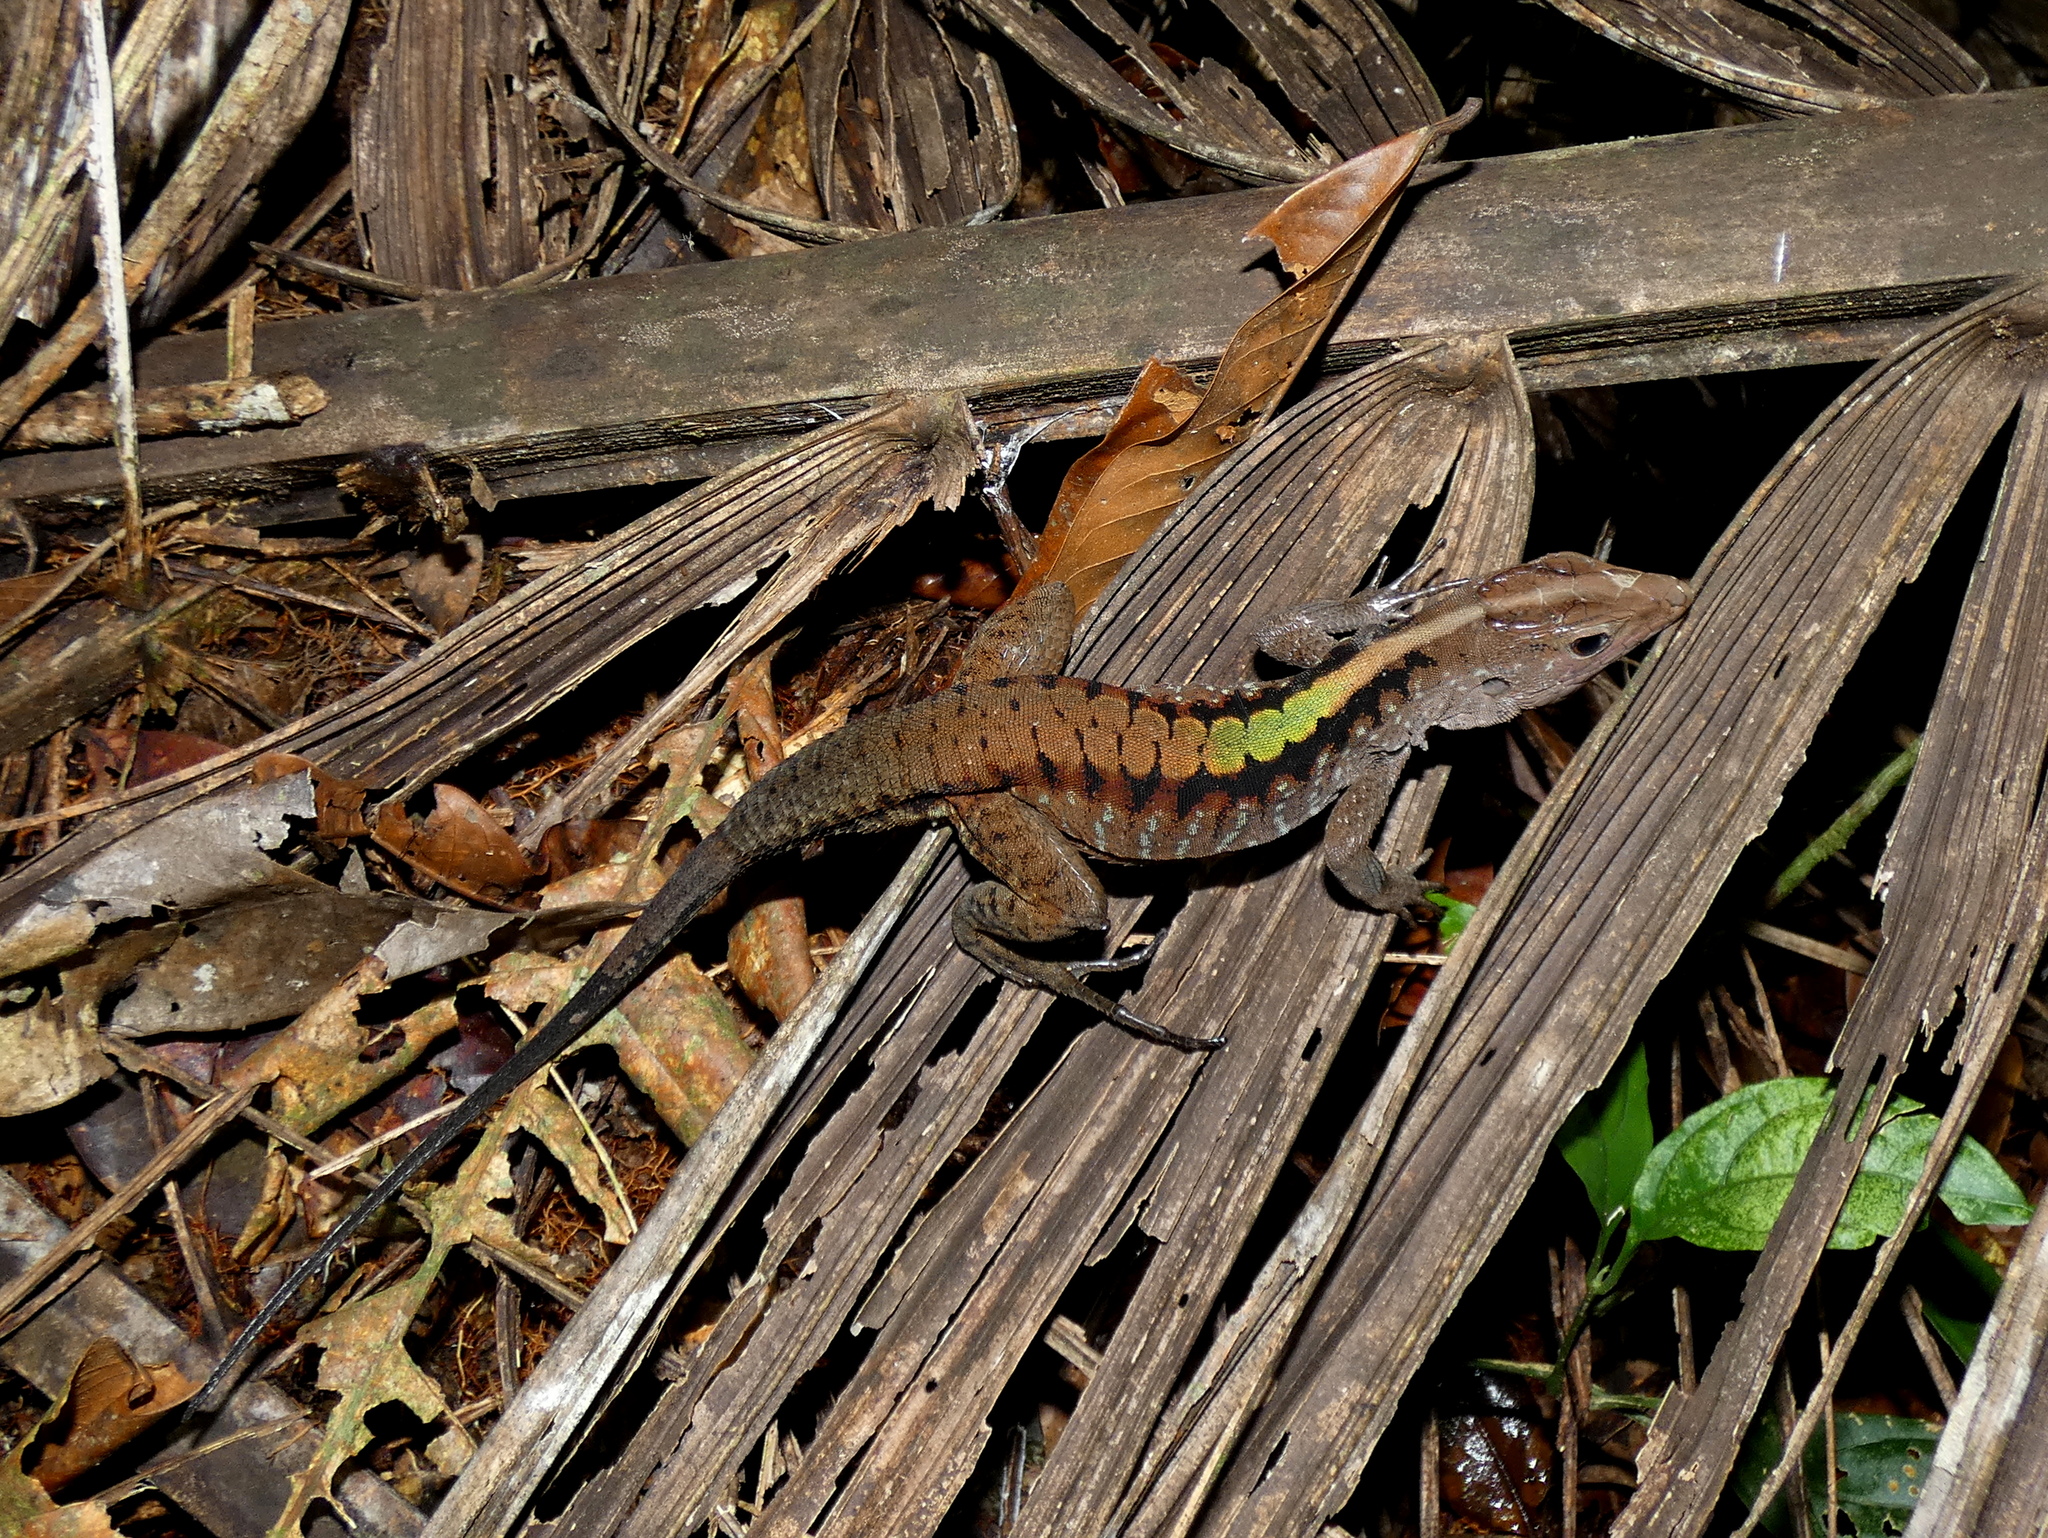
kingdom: Animalia
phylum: Chordata
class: Squamata
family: Teiidae
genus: Kentropyx
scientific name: Kentropyx pelviceps
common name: Forest whiptail
